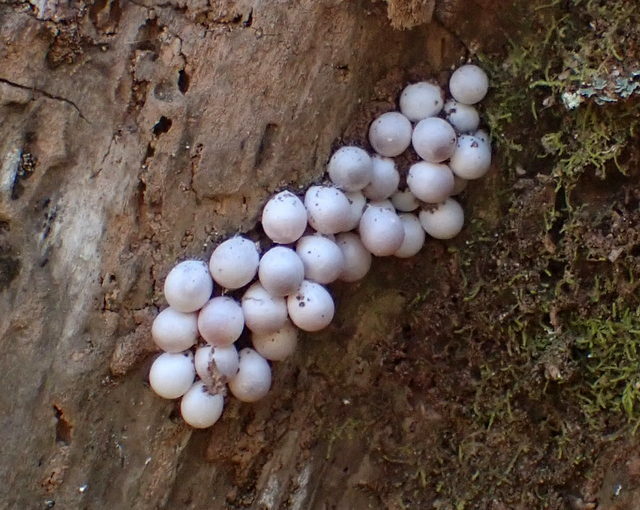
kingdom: Animalia
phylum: Mollusca
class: Gastropoda
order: Architaenioglossa
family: Ampullariidae
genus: Pomacea
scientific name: Pomacea paludosa
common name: Florida applesnail
